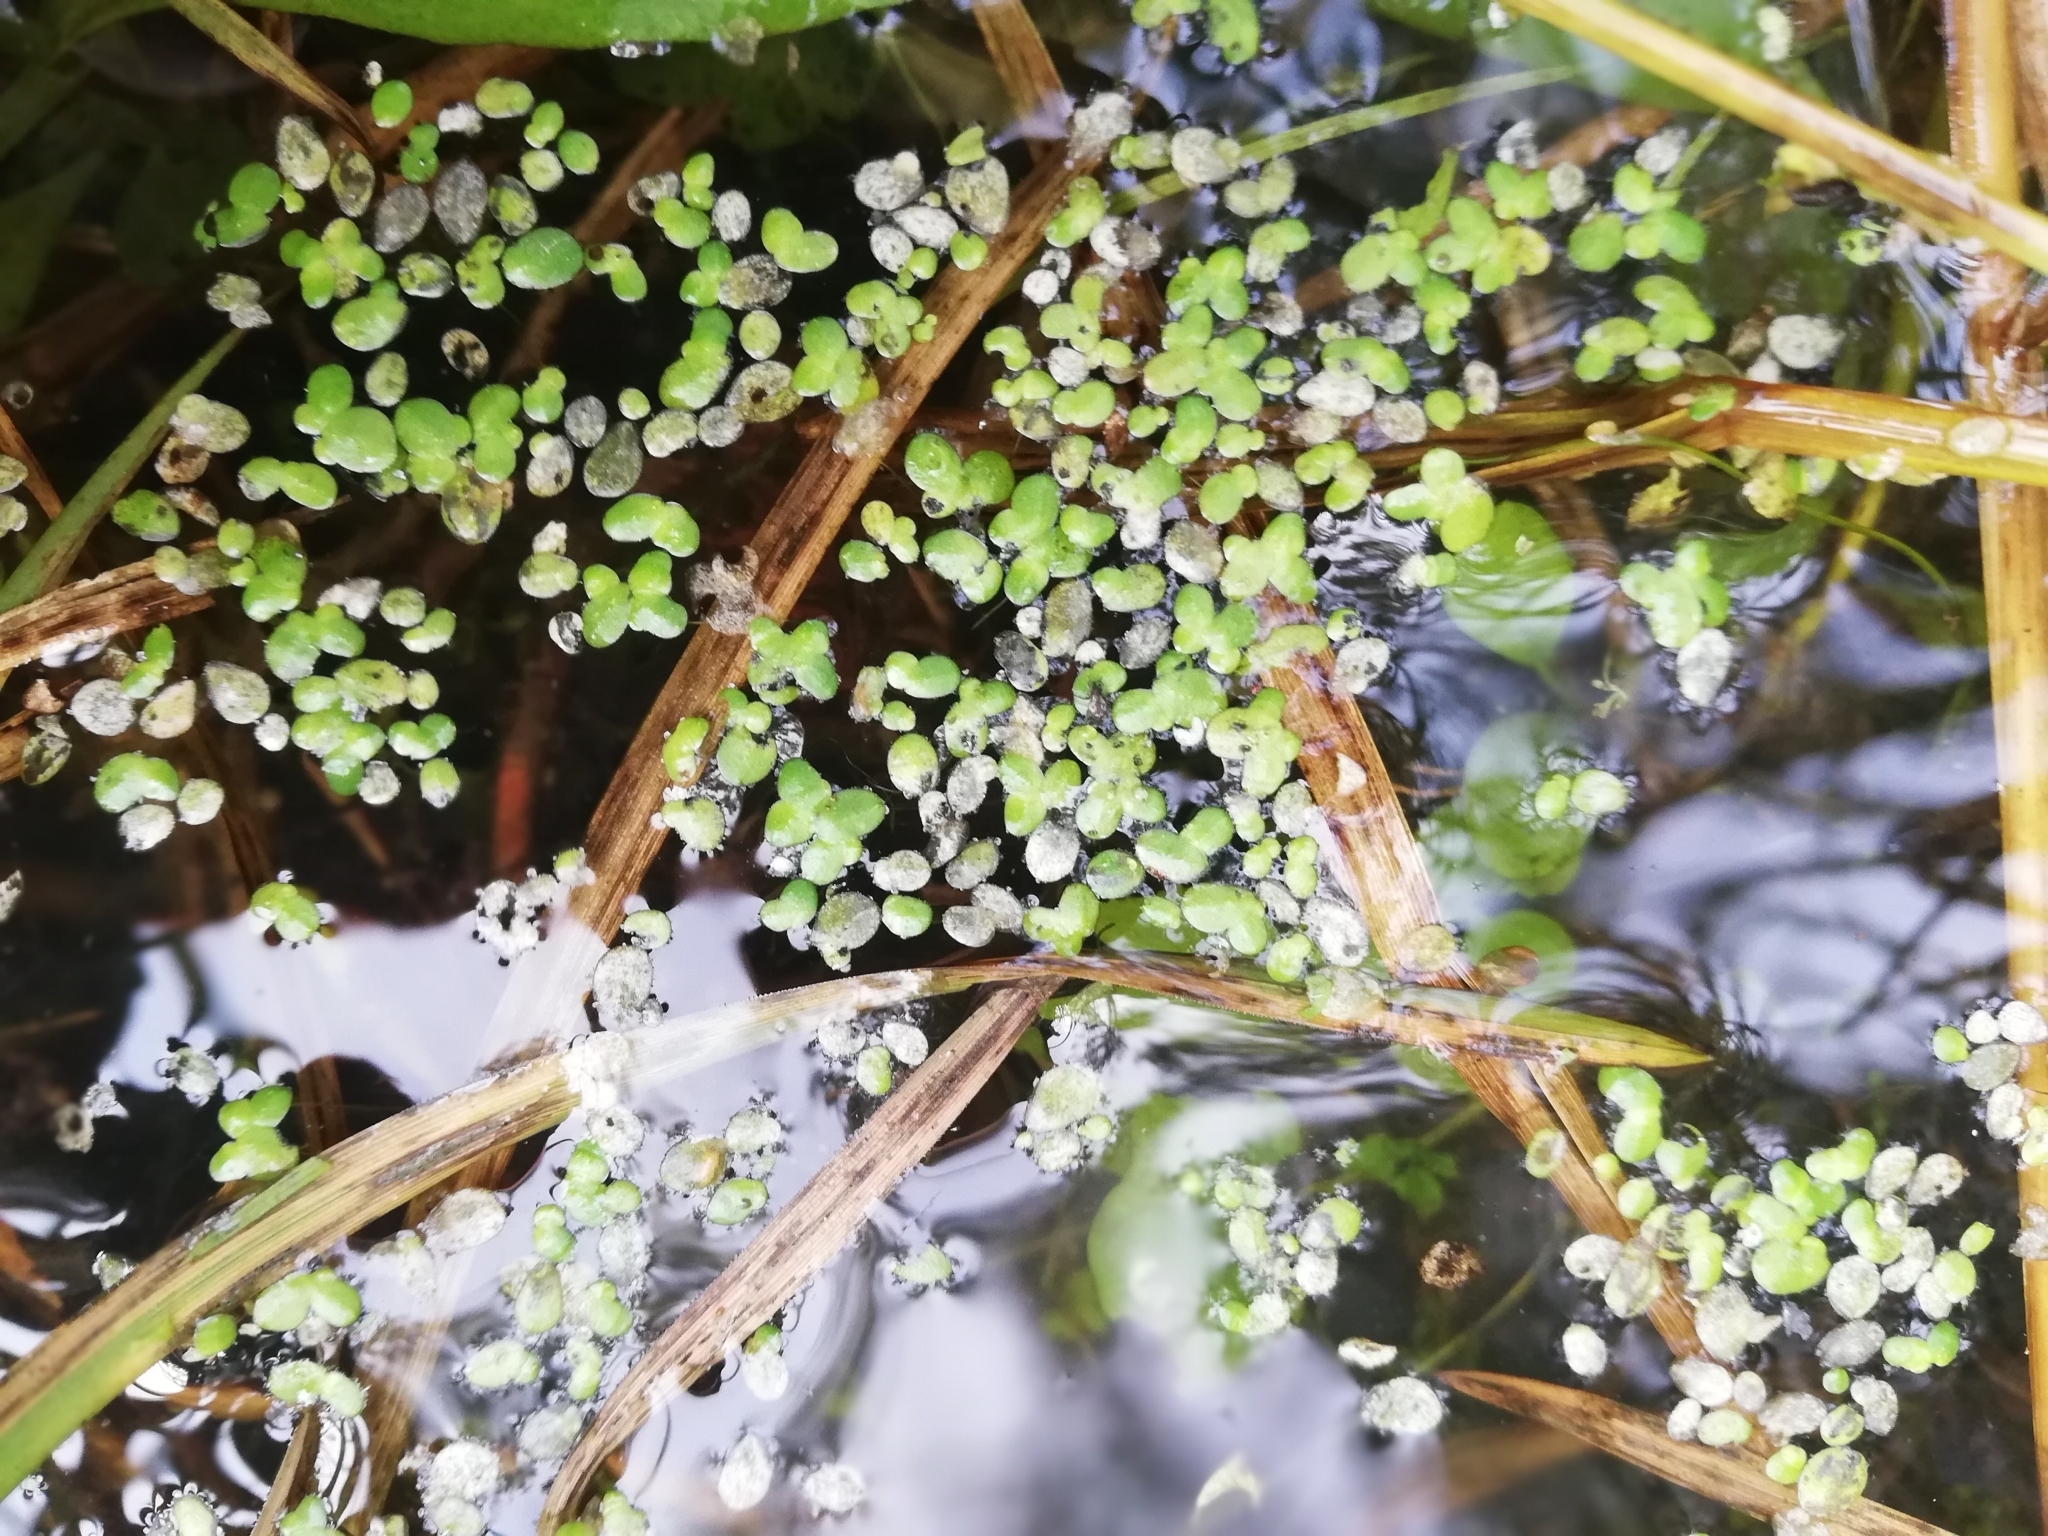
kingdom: Plantae
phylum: Tracheophyta
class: Liliopsida
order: Alismatales
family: Araceae
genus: Lemna
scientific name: Lemna turionifera
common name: Perennial duckweed
